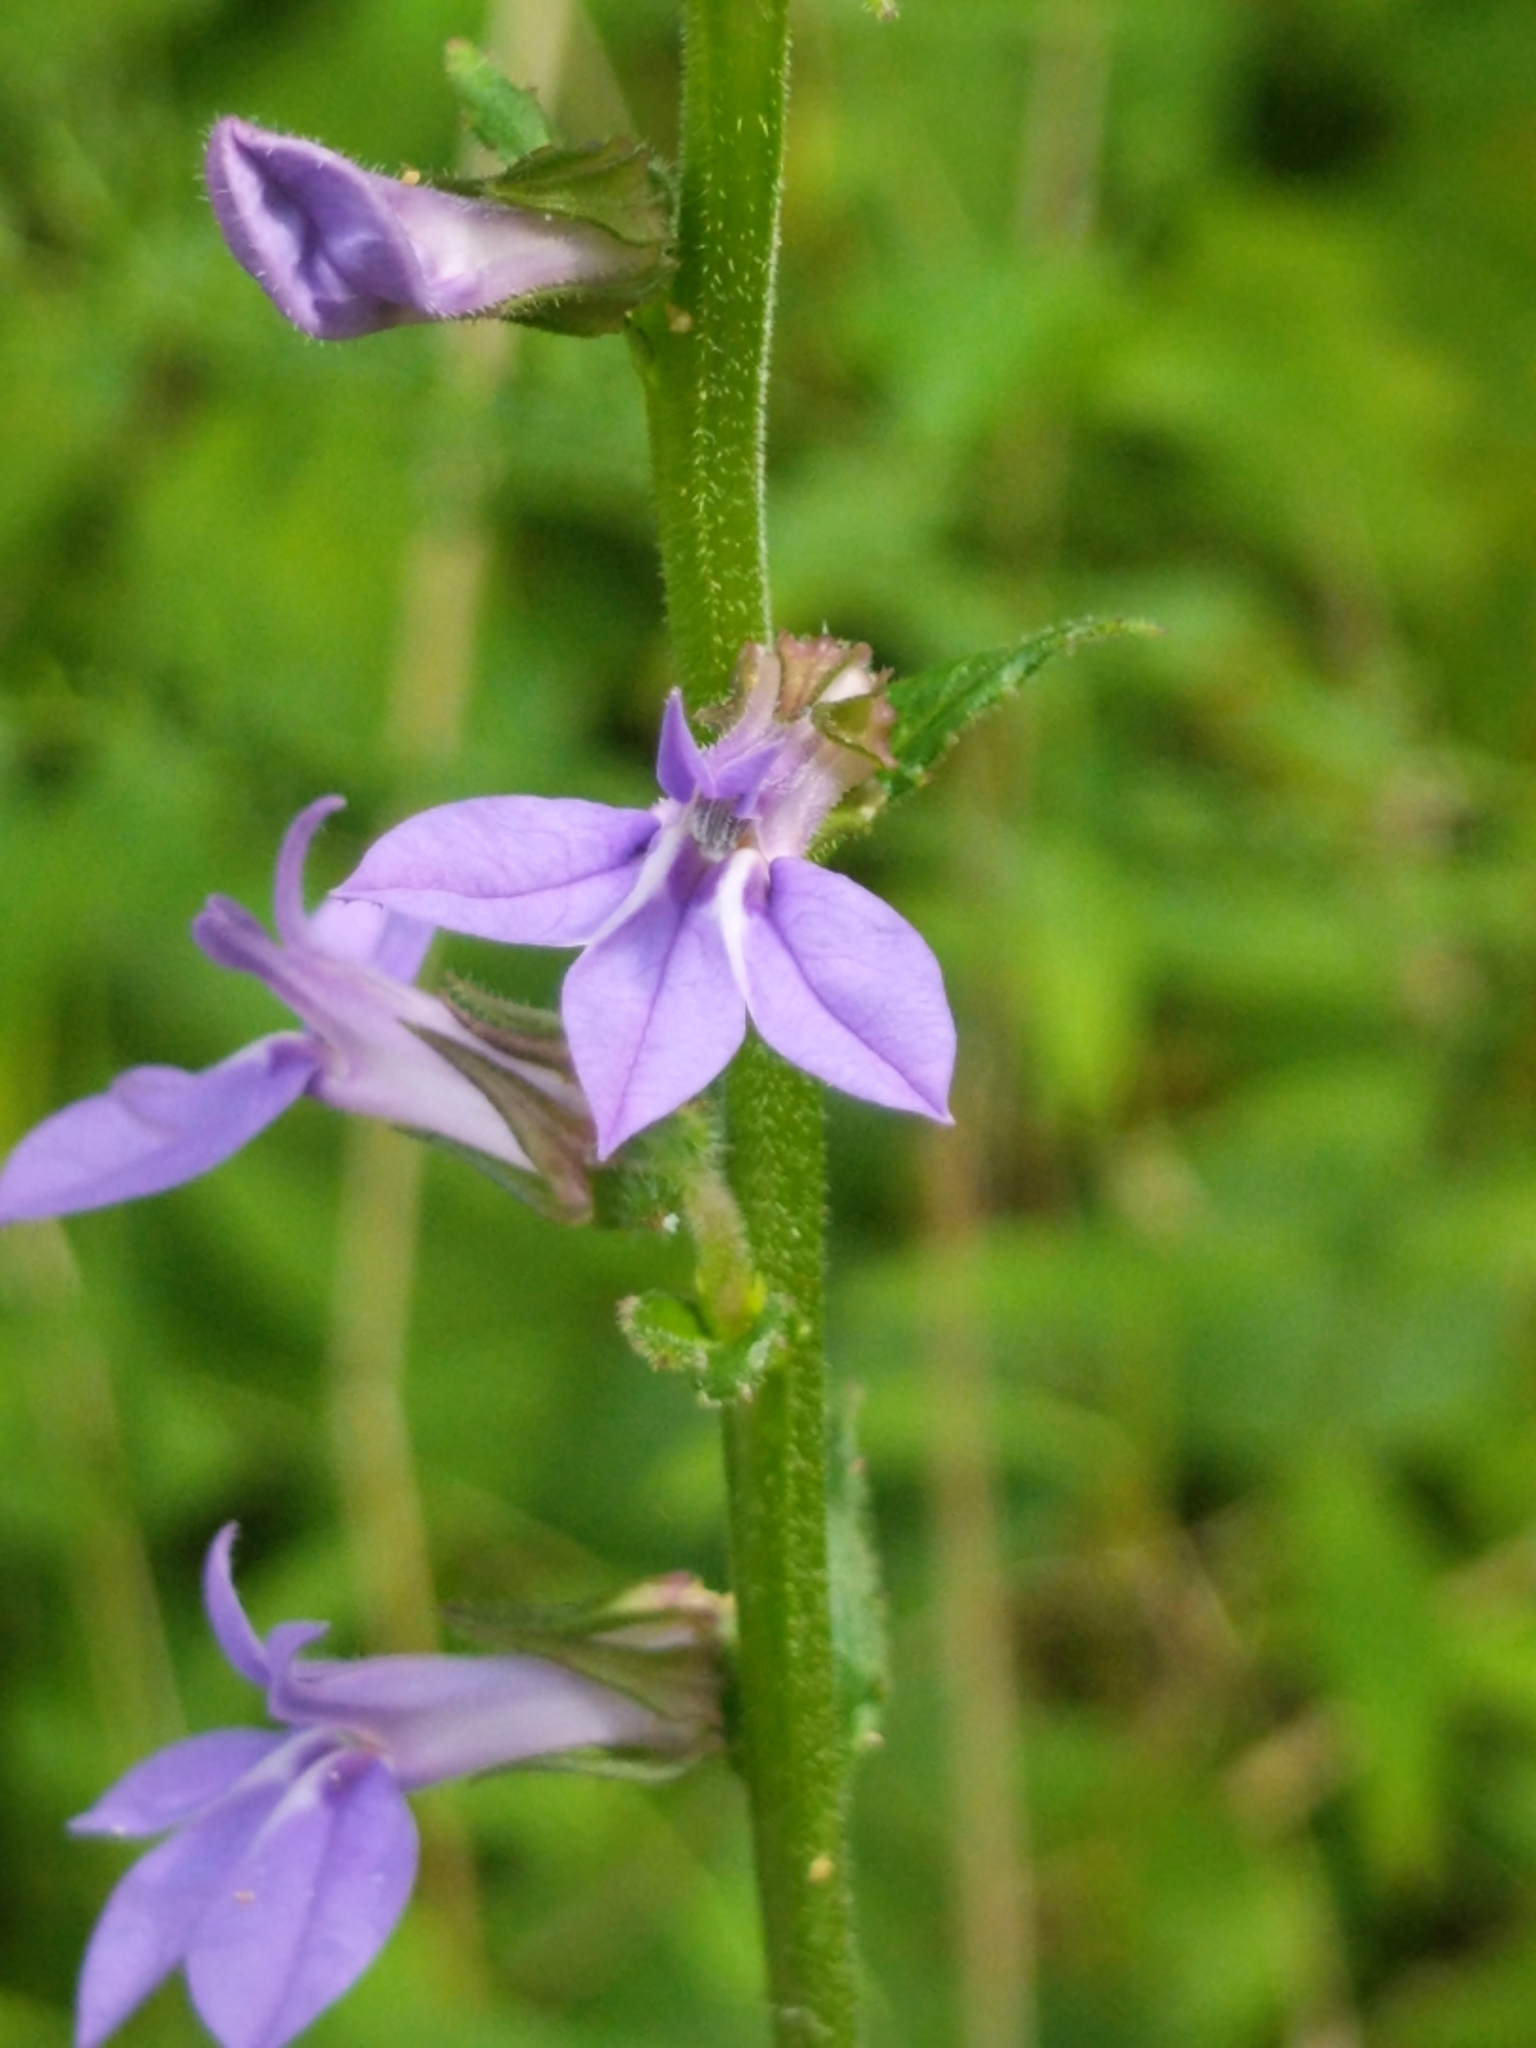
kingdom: Plantae
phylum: Tracheophyta
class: Magnoliopsida
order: Asterales
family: Campanulaceae
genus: Lobelia
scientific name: Lobelia puberula
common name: Purple dewdrop
